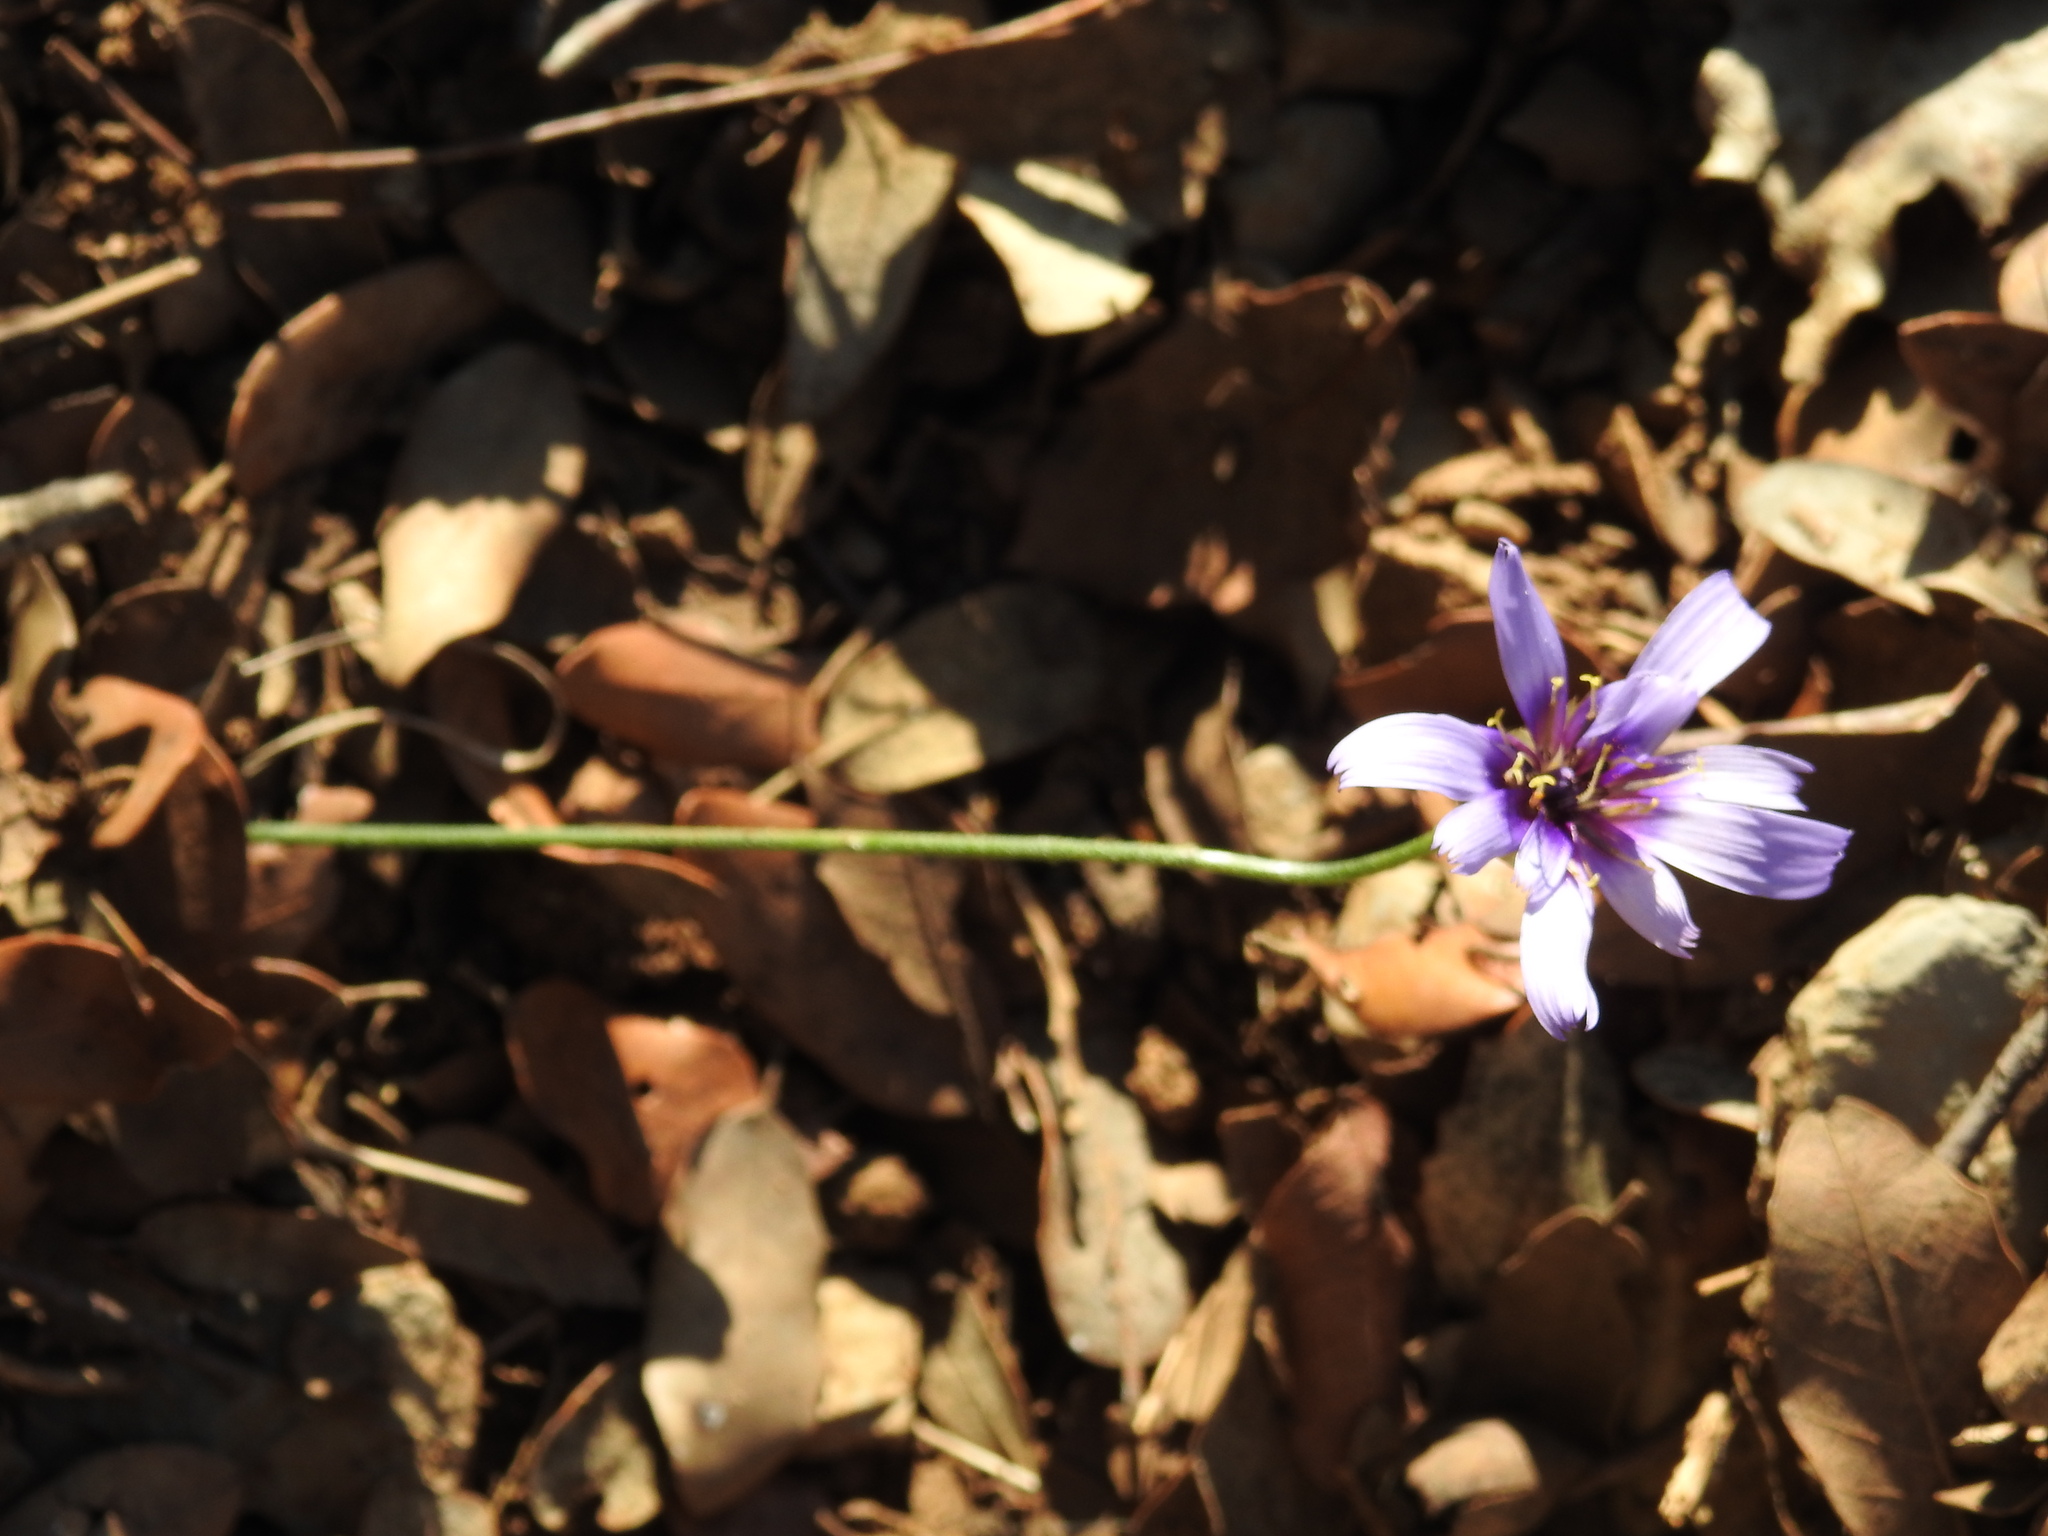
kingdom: Plantae
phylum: Tracheophyta
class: Magnoliopsida
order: Asterales
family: Asteraceae
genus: Catananche
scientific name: Catananche caerulea
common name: Blue cupidone
